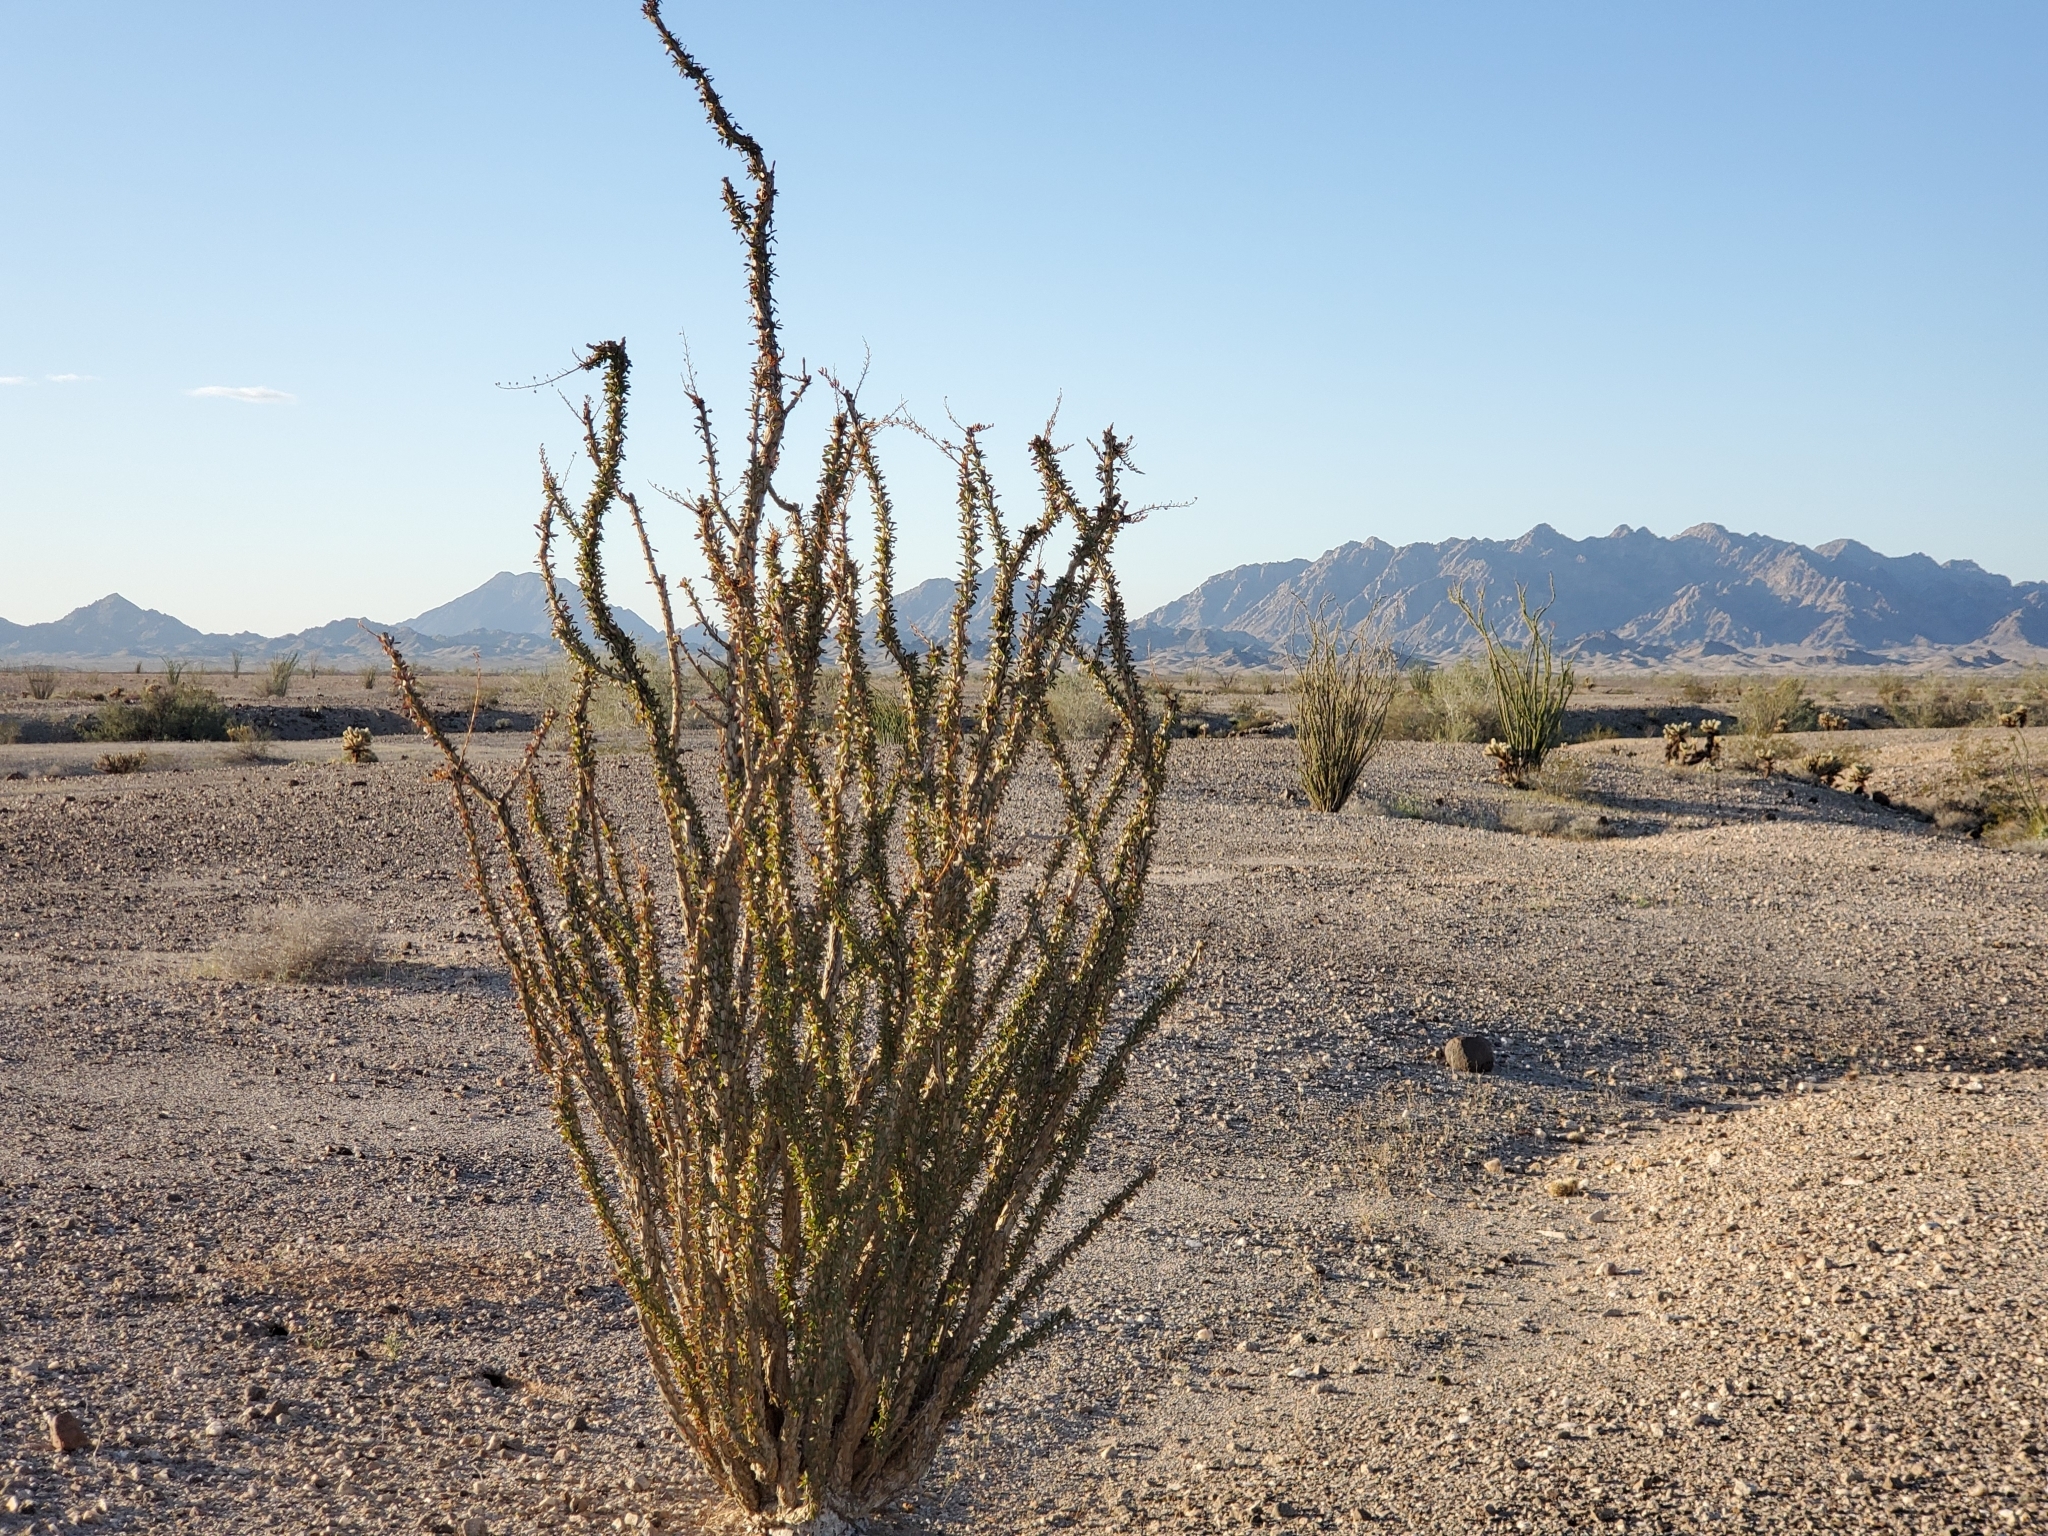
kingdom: Plantae
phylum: Tracheophyta
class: Magnoliopsida
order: Ericales
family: Fouquieriaceae
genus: Fouquieria
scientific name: Fouquieria splendens
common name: Vine-cactus
